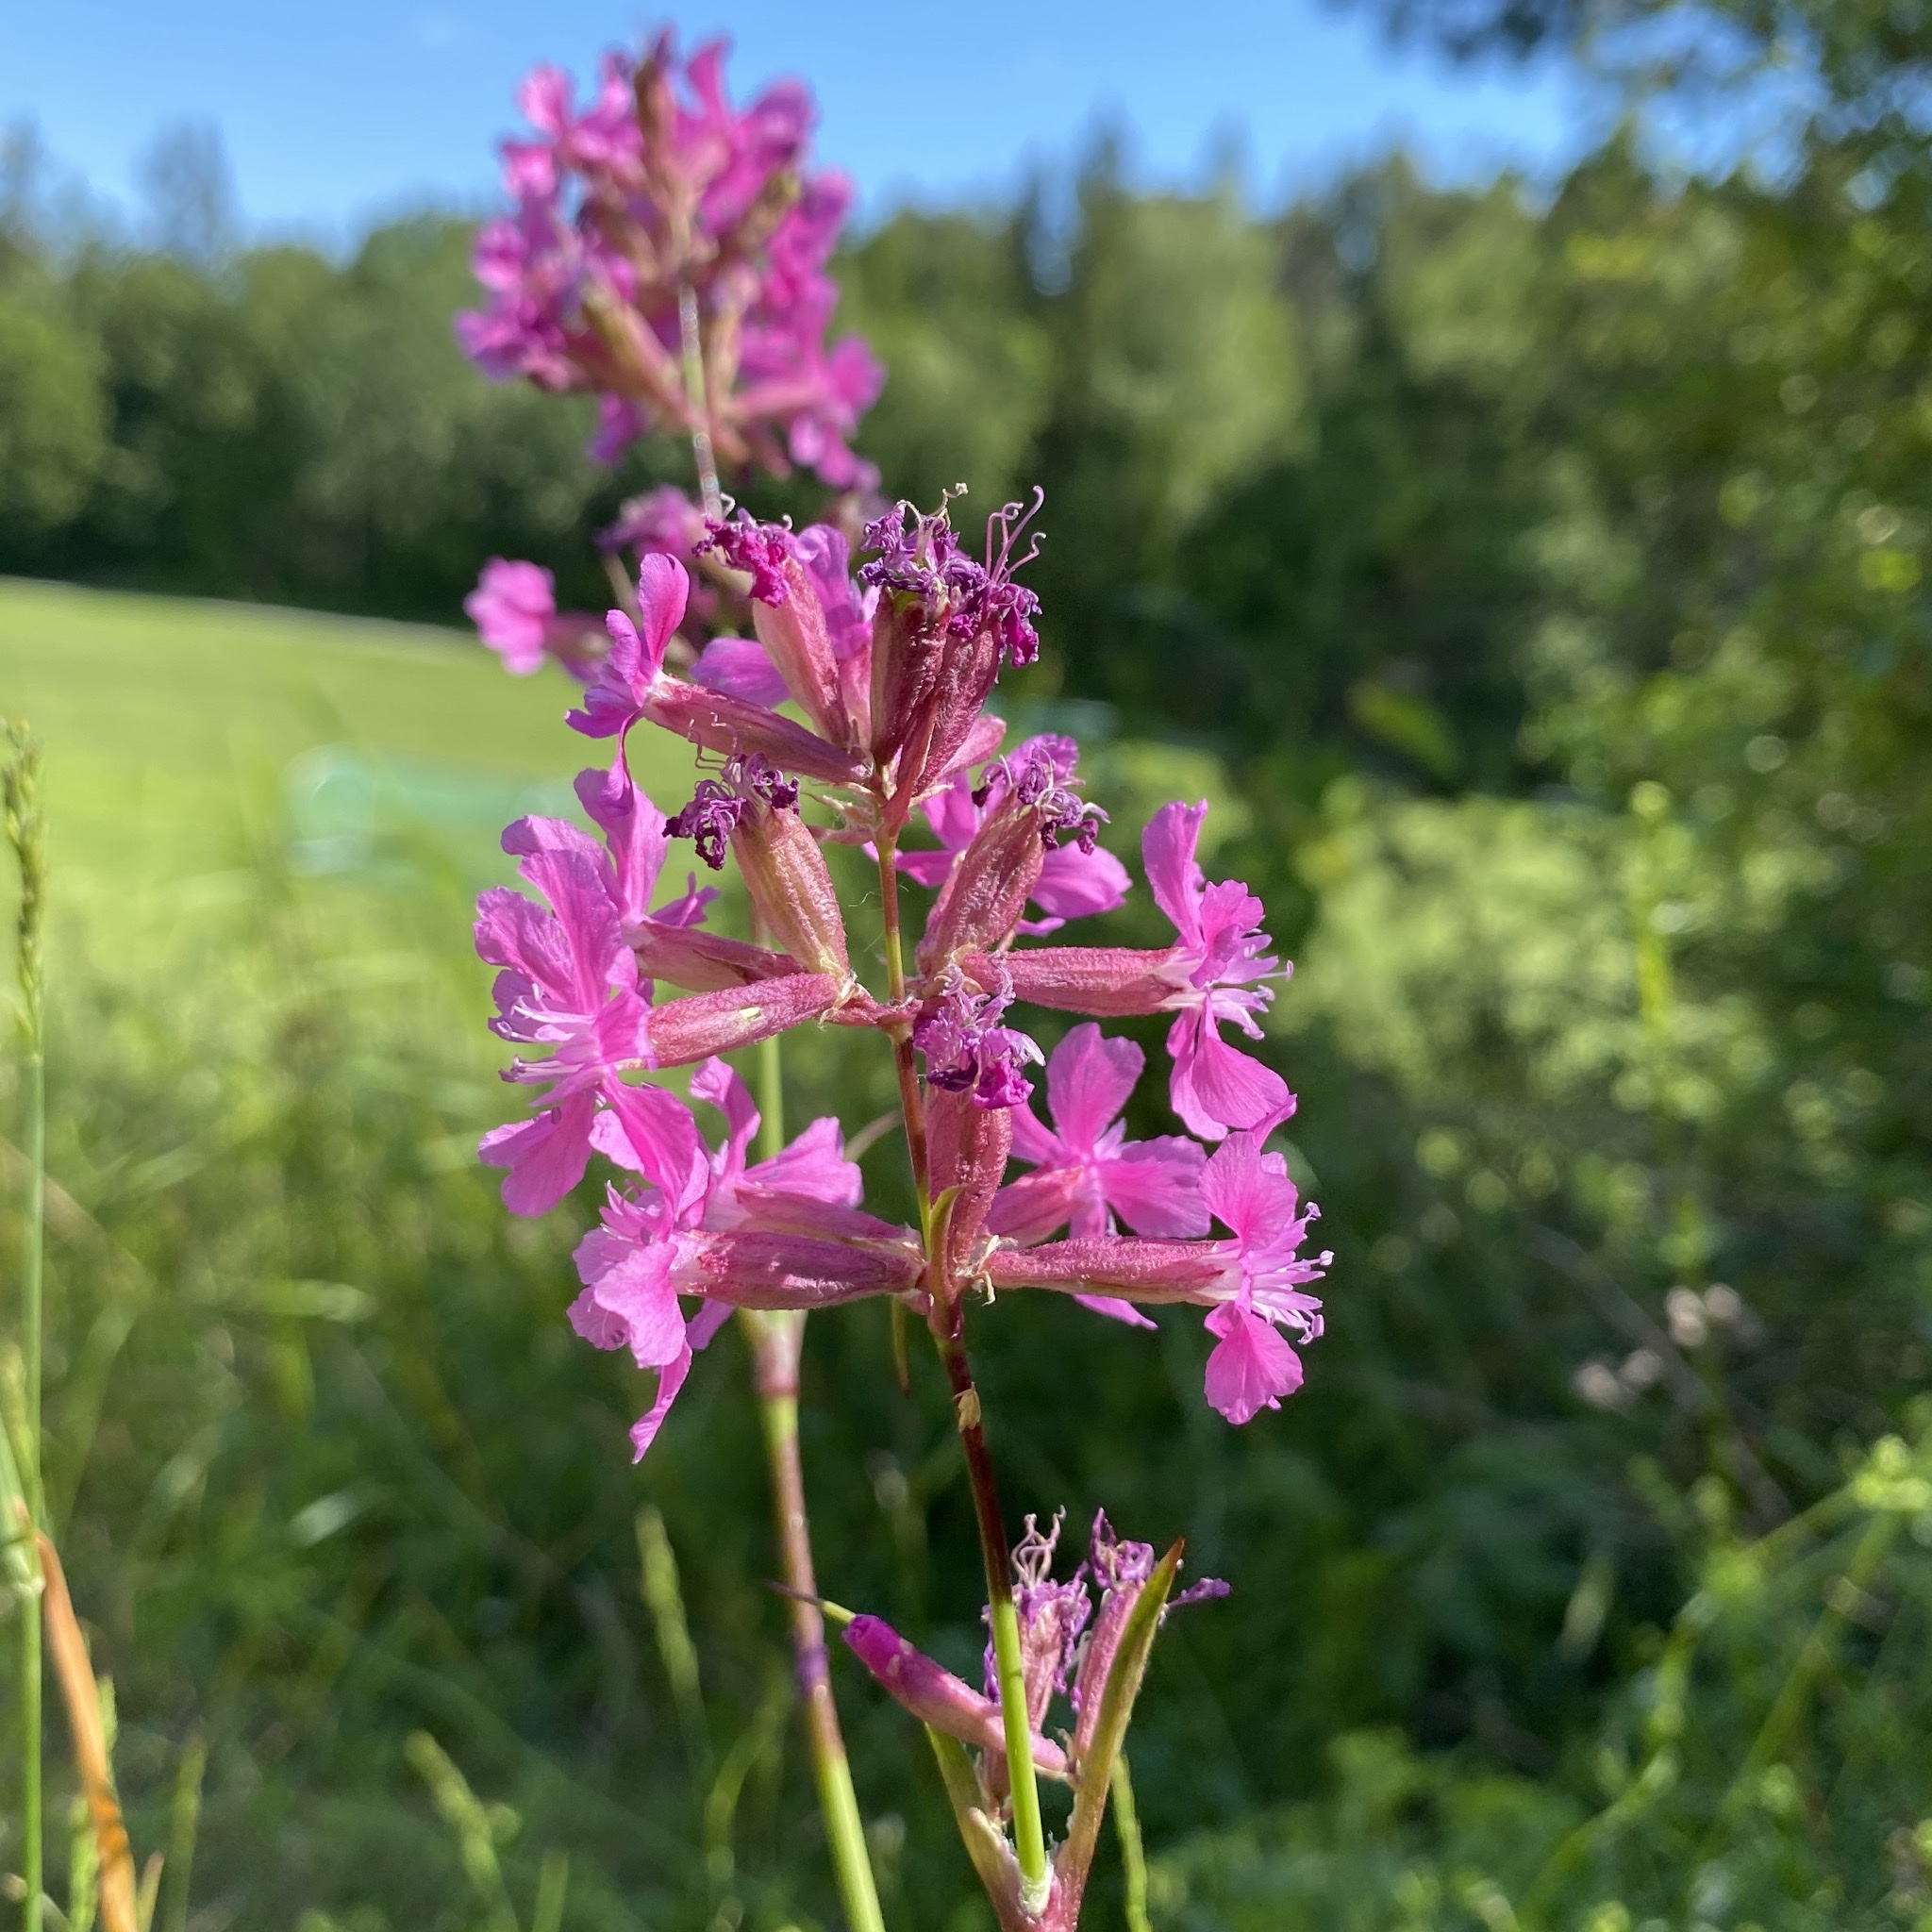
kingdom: Plantae
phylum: Tracheophyta
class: Magnoliopsida
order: Caryophyllales
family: Caryophyllaceae
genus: Viscaria
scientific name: Viscaria vulgaris
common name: Clammy campion
